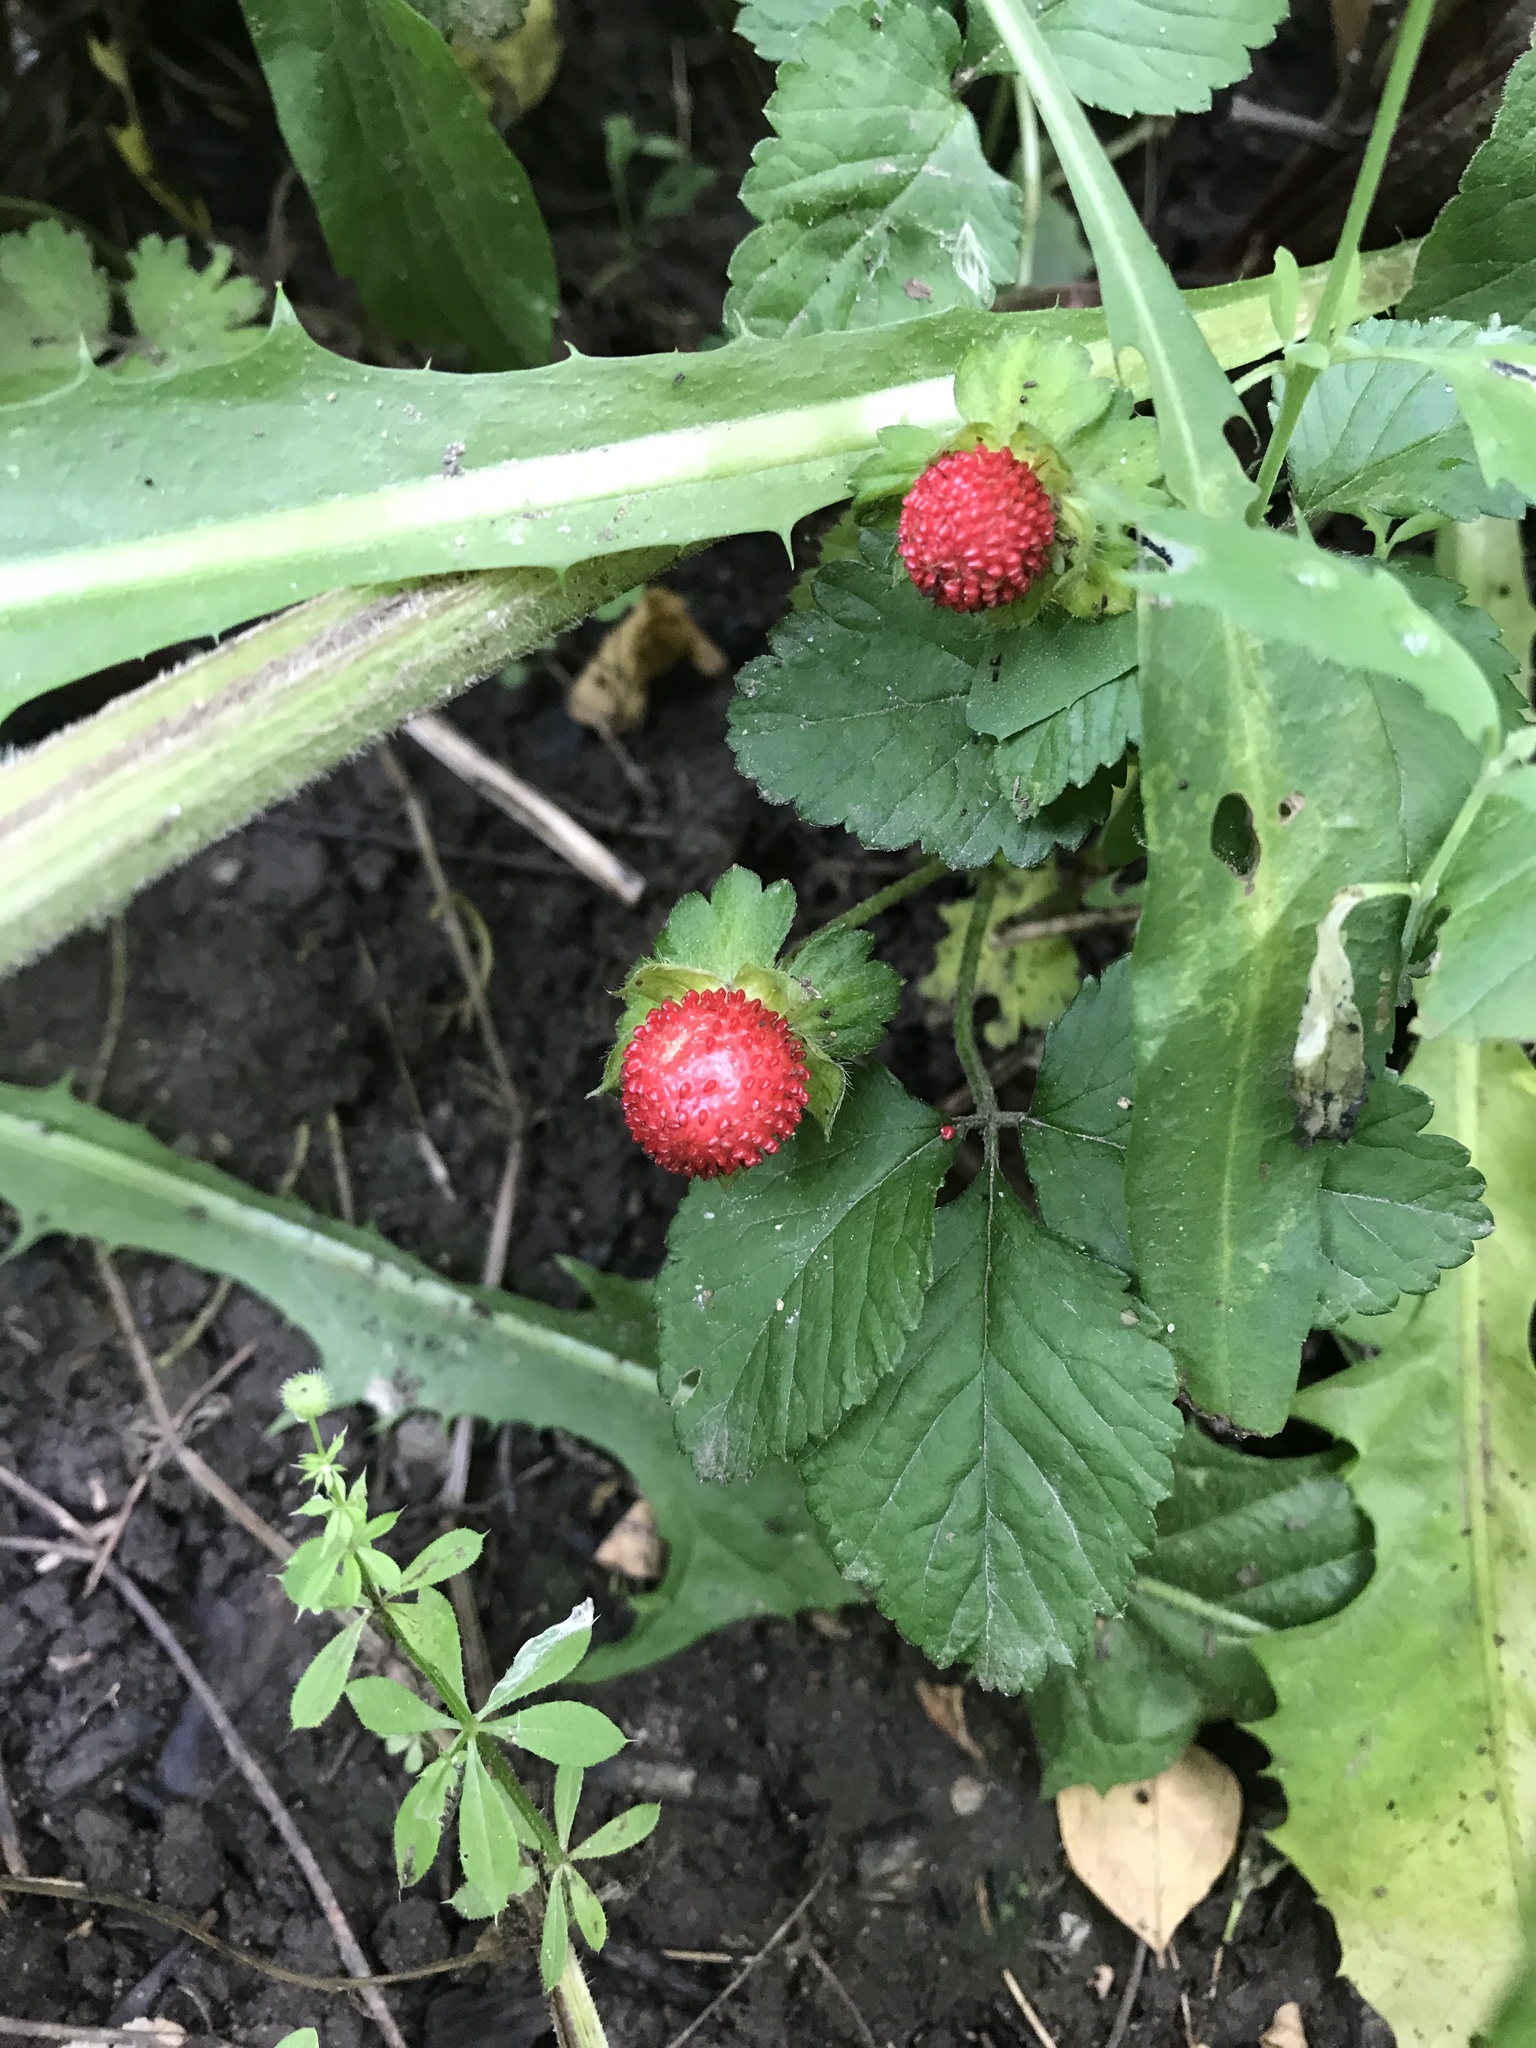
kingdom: Plantae
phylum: Tracheophyta
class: Magnoliopsida
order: Rosales
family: Rosaceae
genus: Potentilla
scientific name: Potentilla indica
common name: Yellow-flowered strawberry
